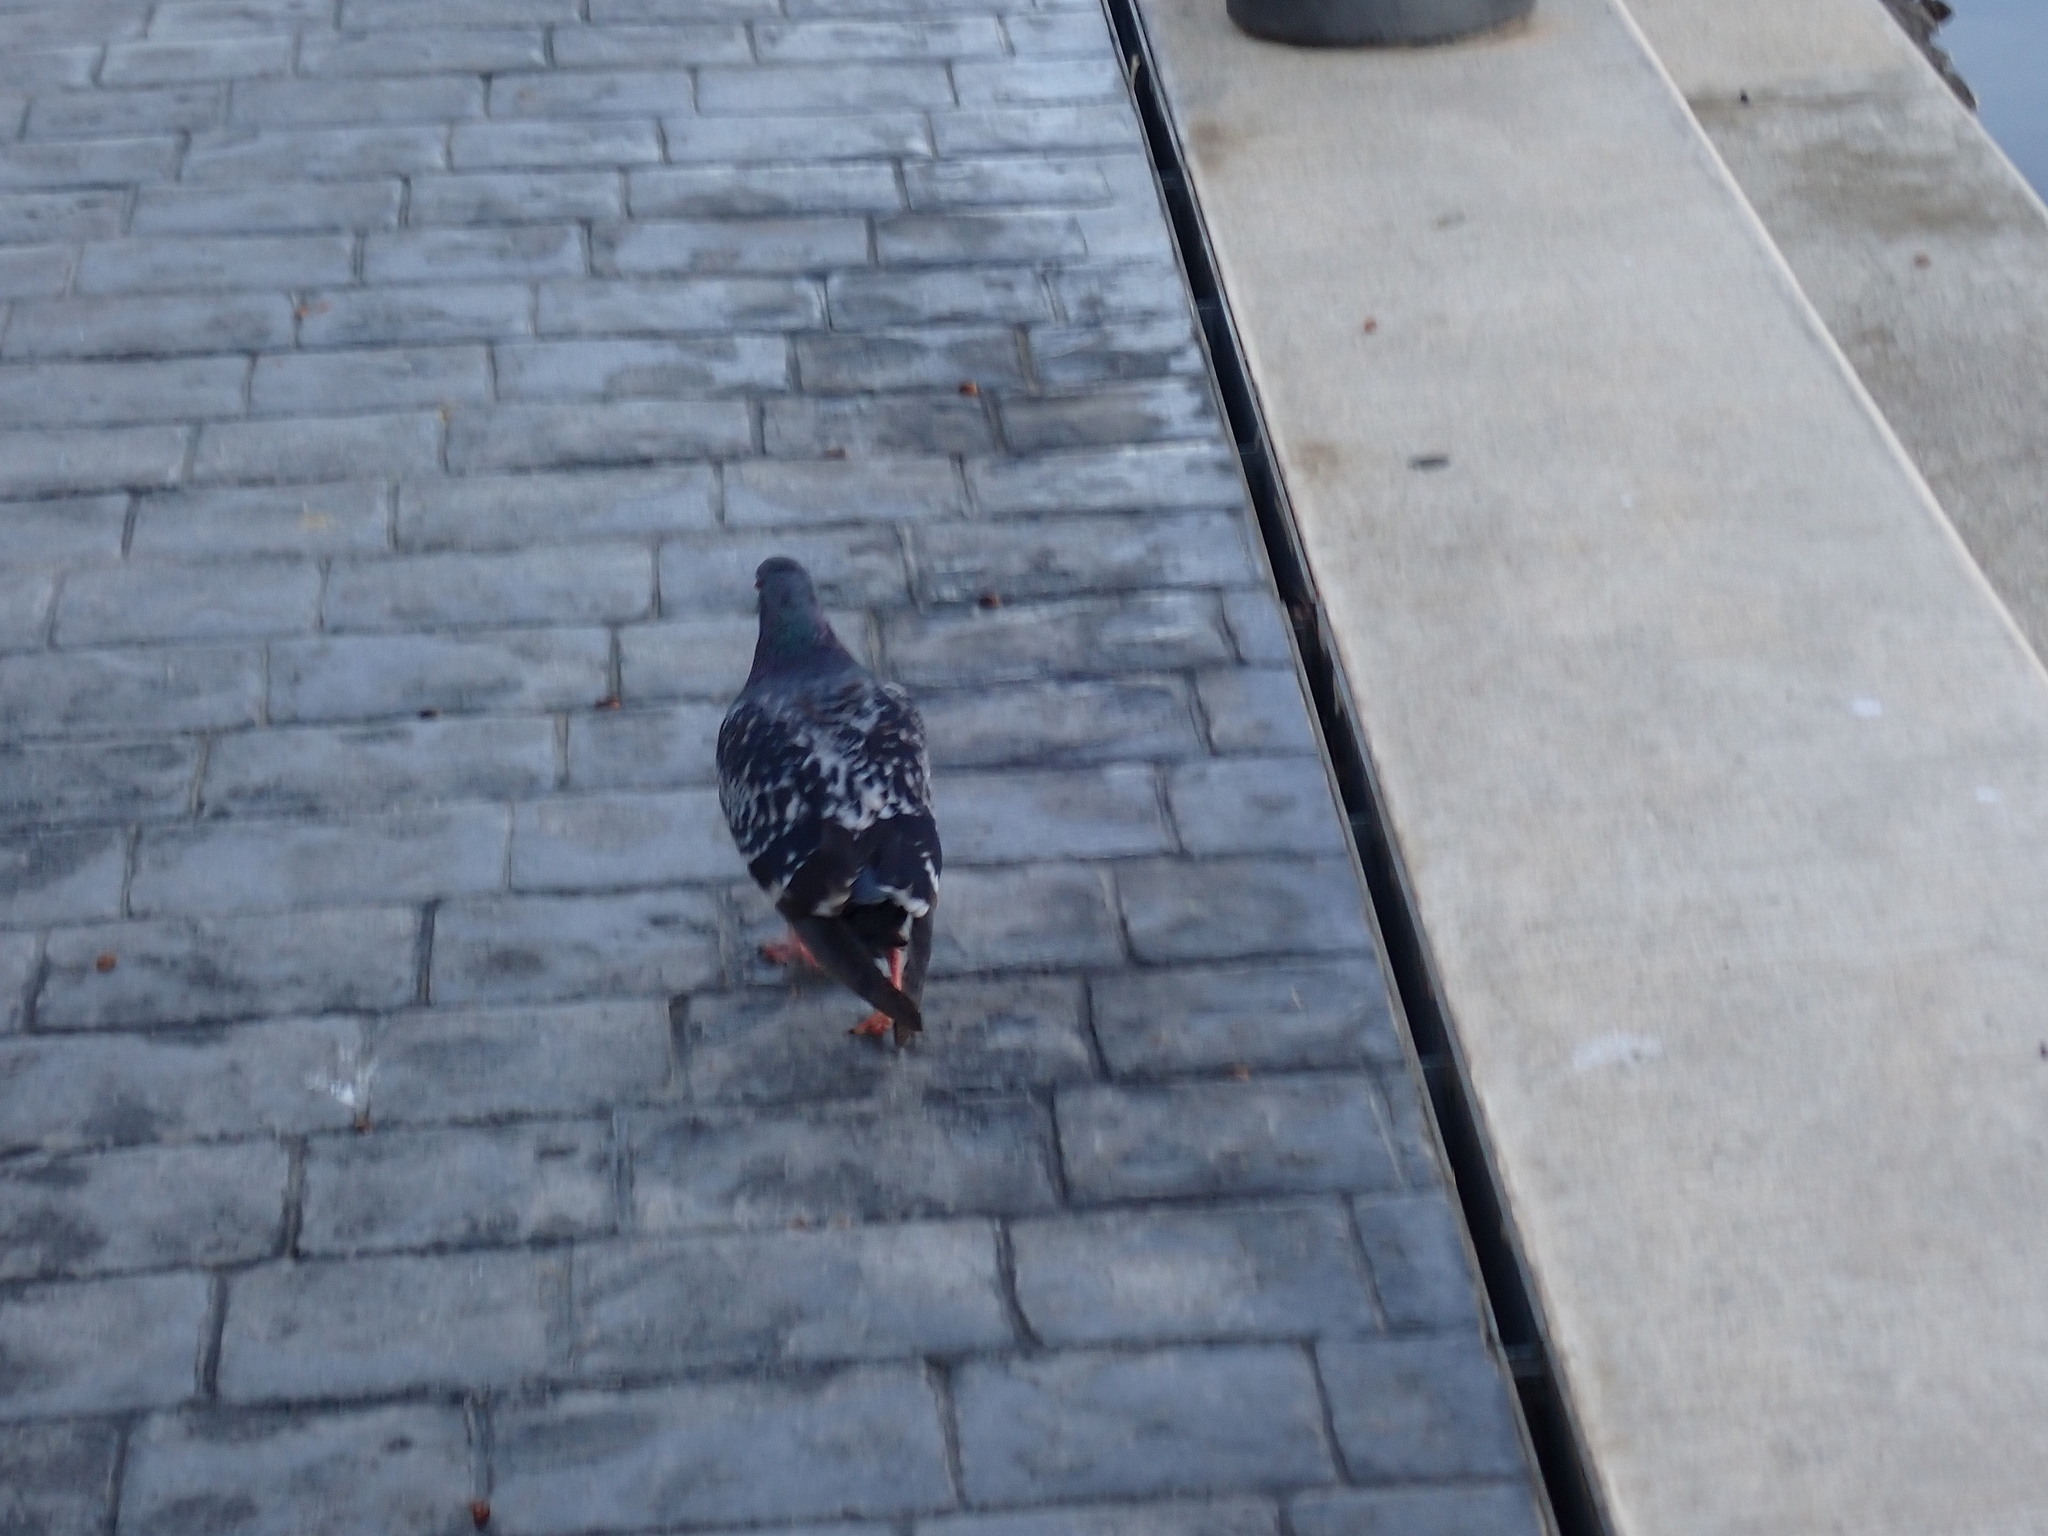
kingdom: Animalia
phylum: Chordata
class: Aves
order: Columbiformes
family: Columbidae
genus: Columba
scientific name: Columba livia
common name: Rock pigeon
